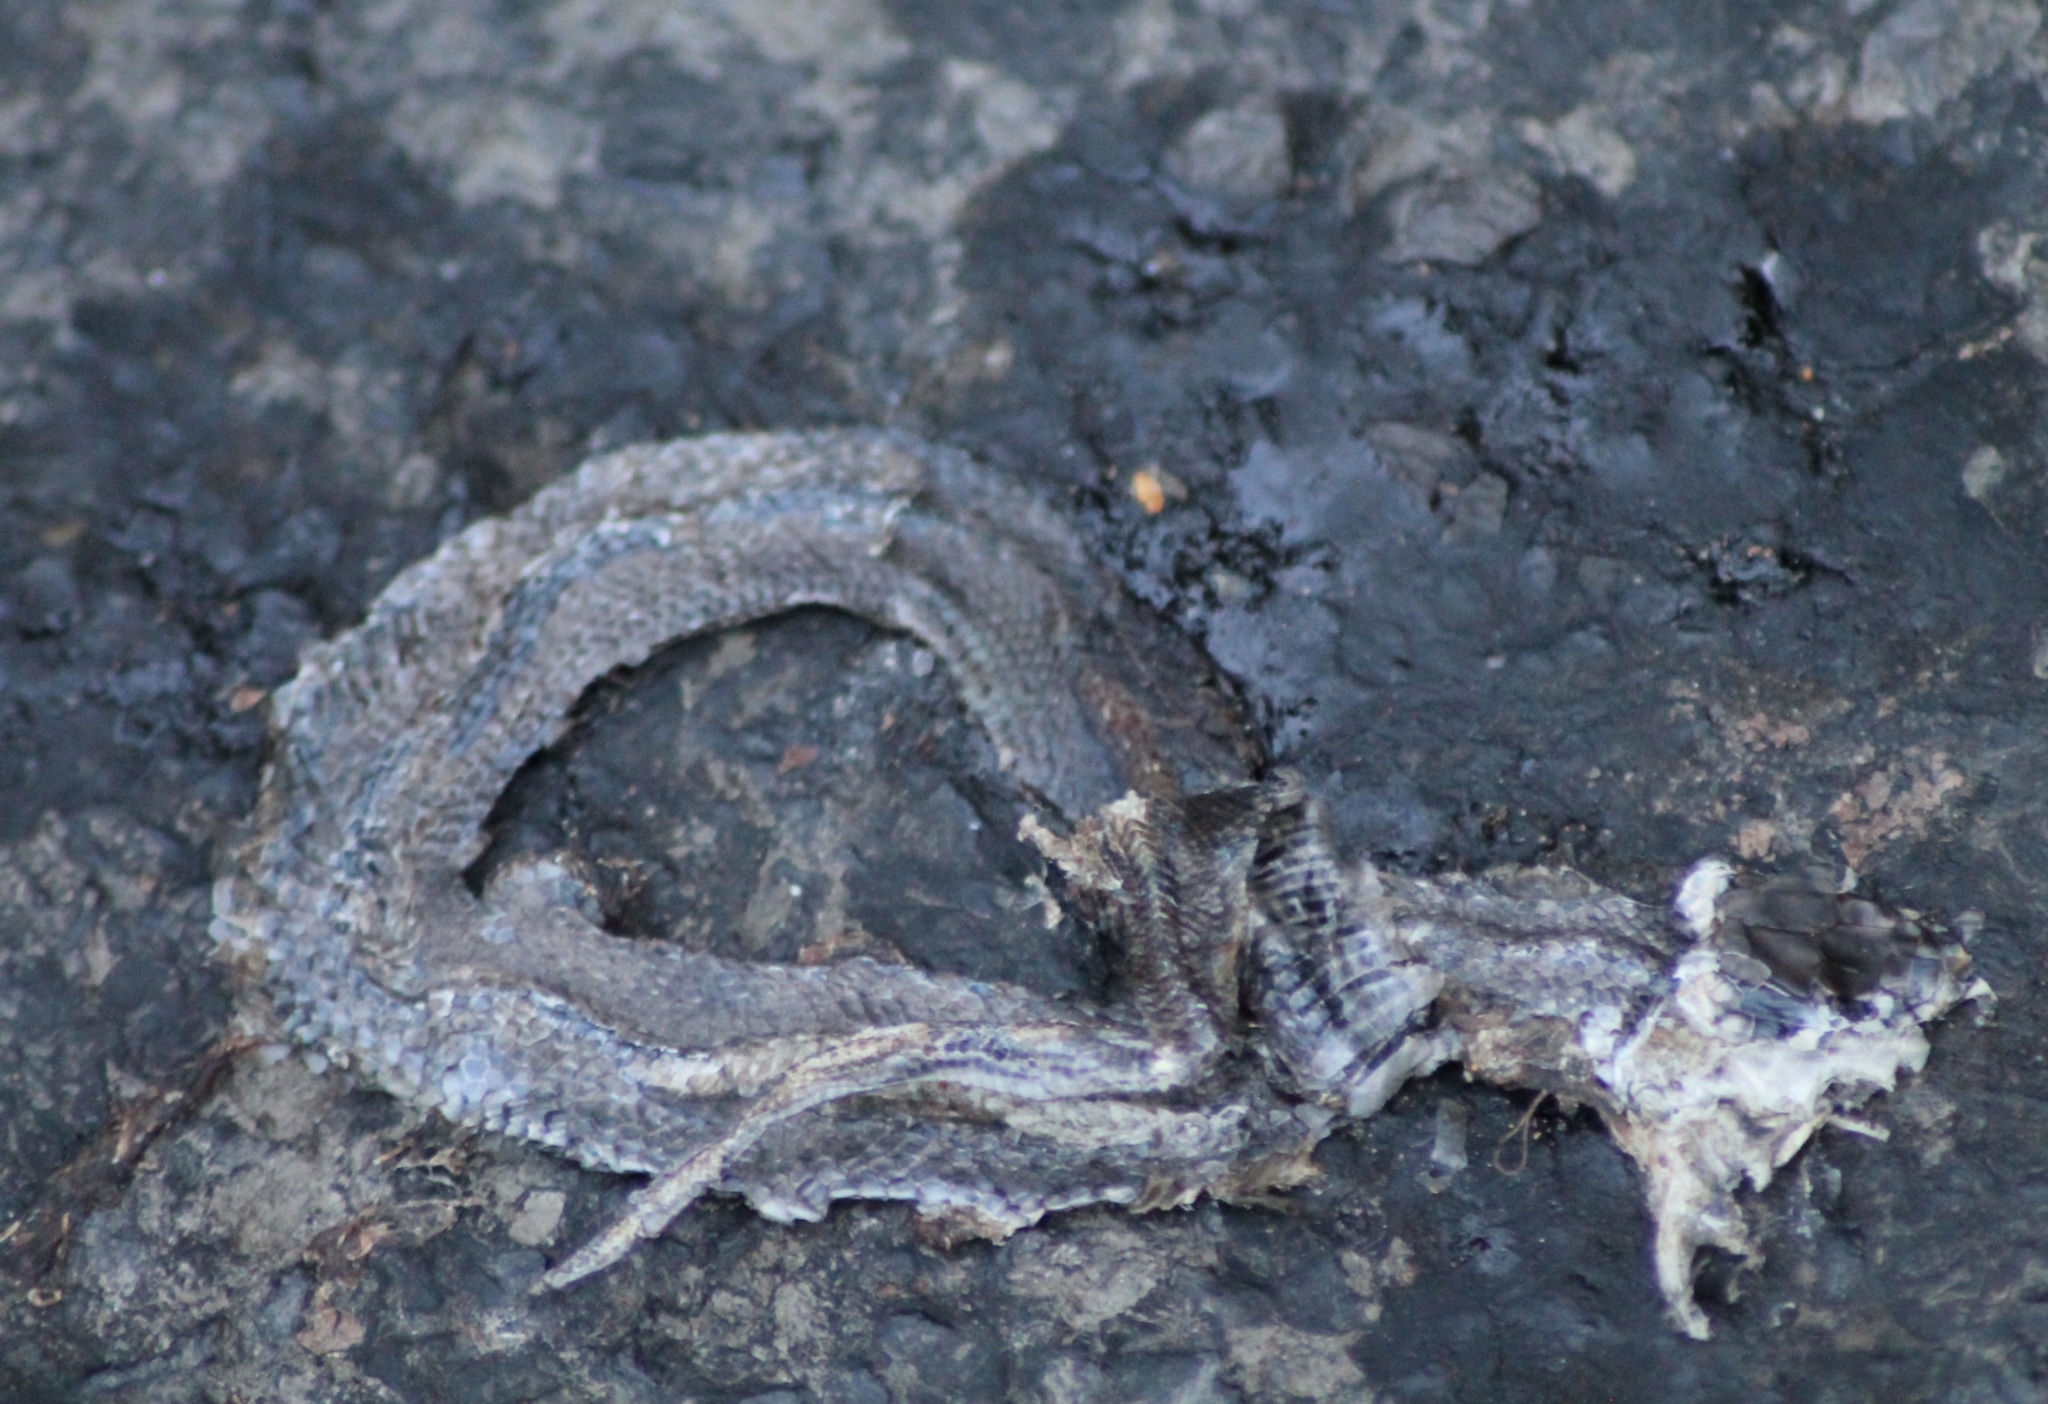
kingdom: Animalia
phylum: Chordata
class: Squamata
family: Colubridae
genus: Natrix
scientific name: Natrix natrix
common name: Grass snake
